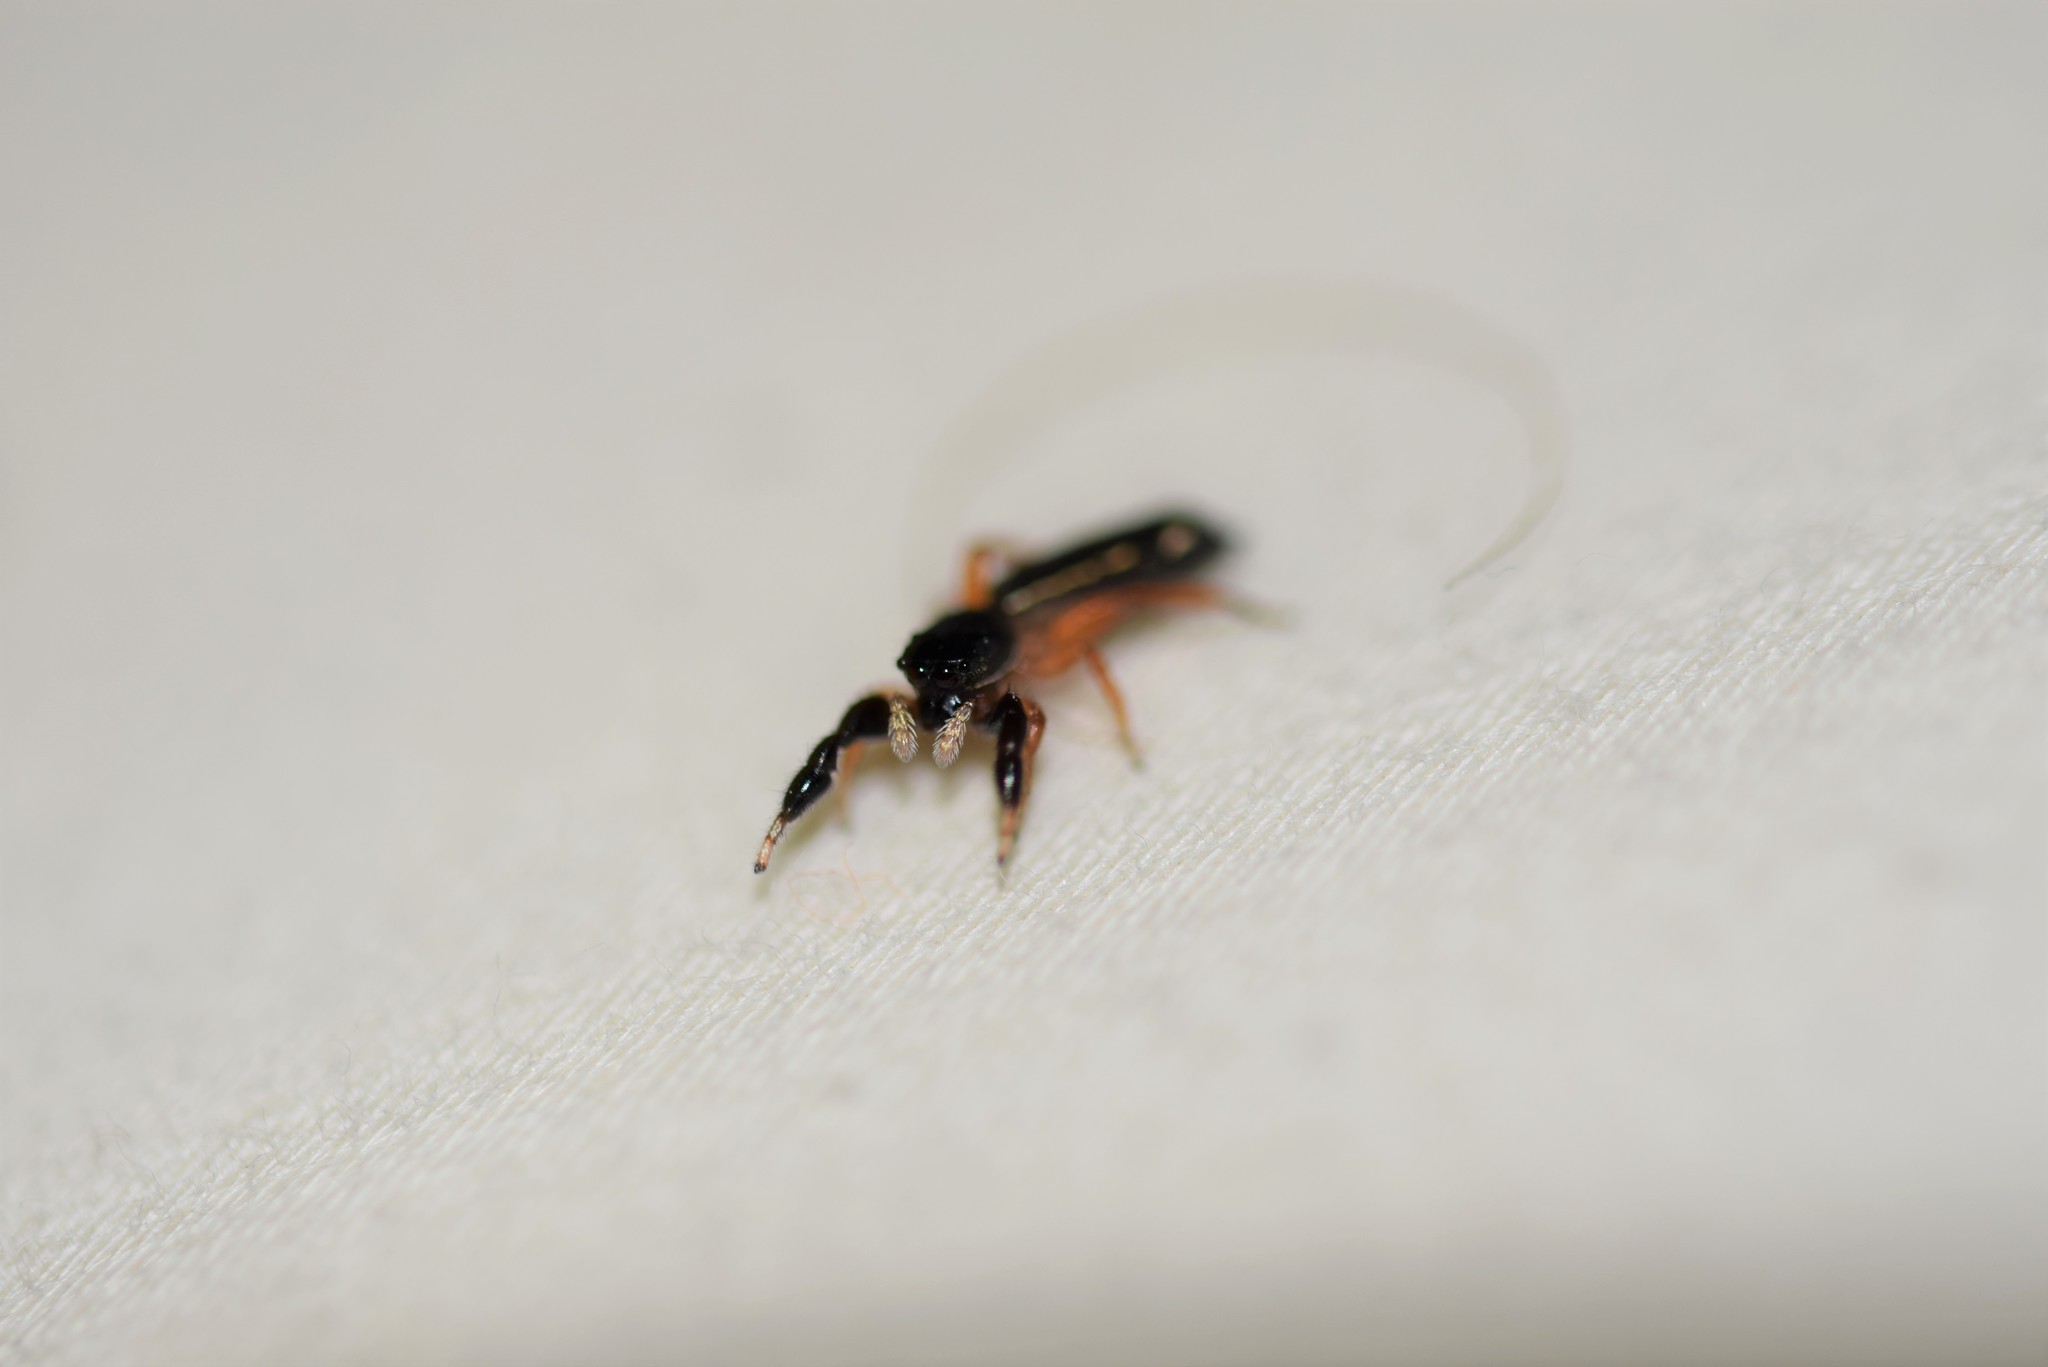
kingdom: Animalia
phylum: Arthropoda
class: Arachnida
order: Araneae
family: Salticidae
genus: Metacyrba
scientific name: Metacyrba floridana
